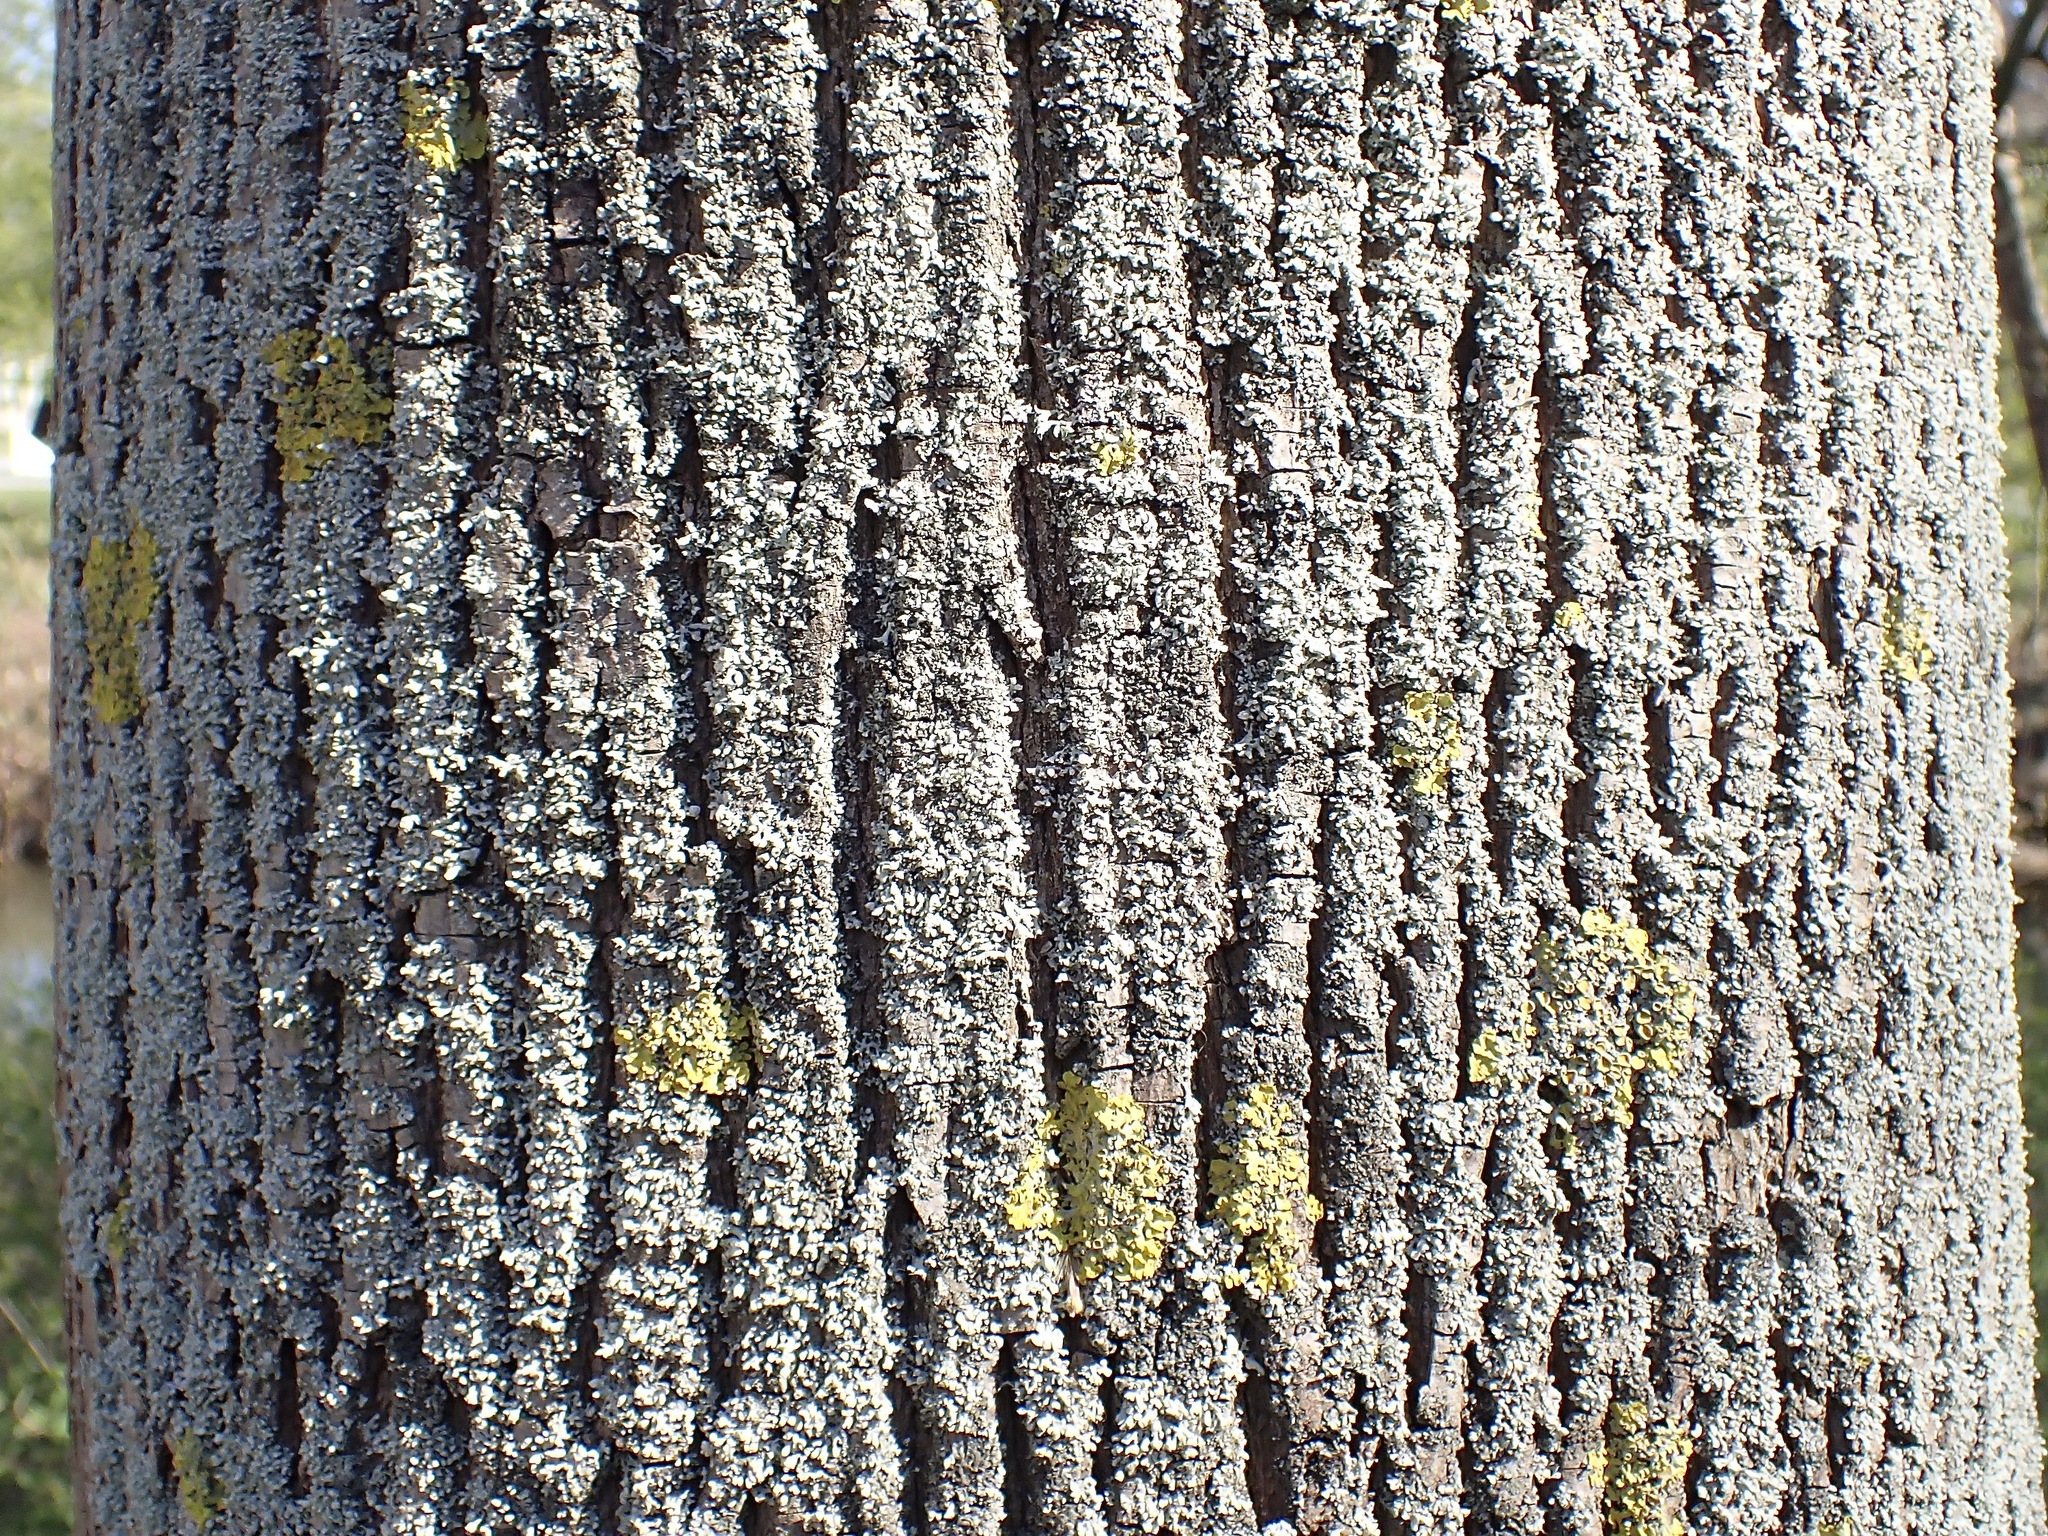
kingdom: Fungi
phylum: Ascomycota
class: Lecanoromycetes
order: Caliciales
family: Physciaceae
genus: Physcia
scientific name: Physcia adscendens
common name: Hooded rosette lichen
